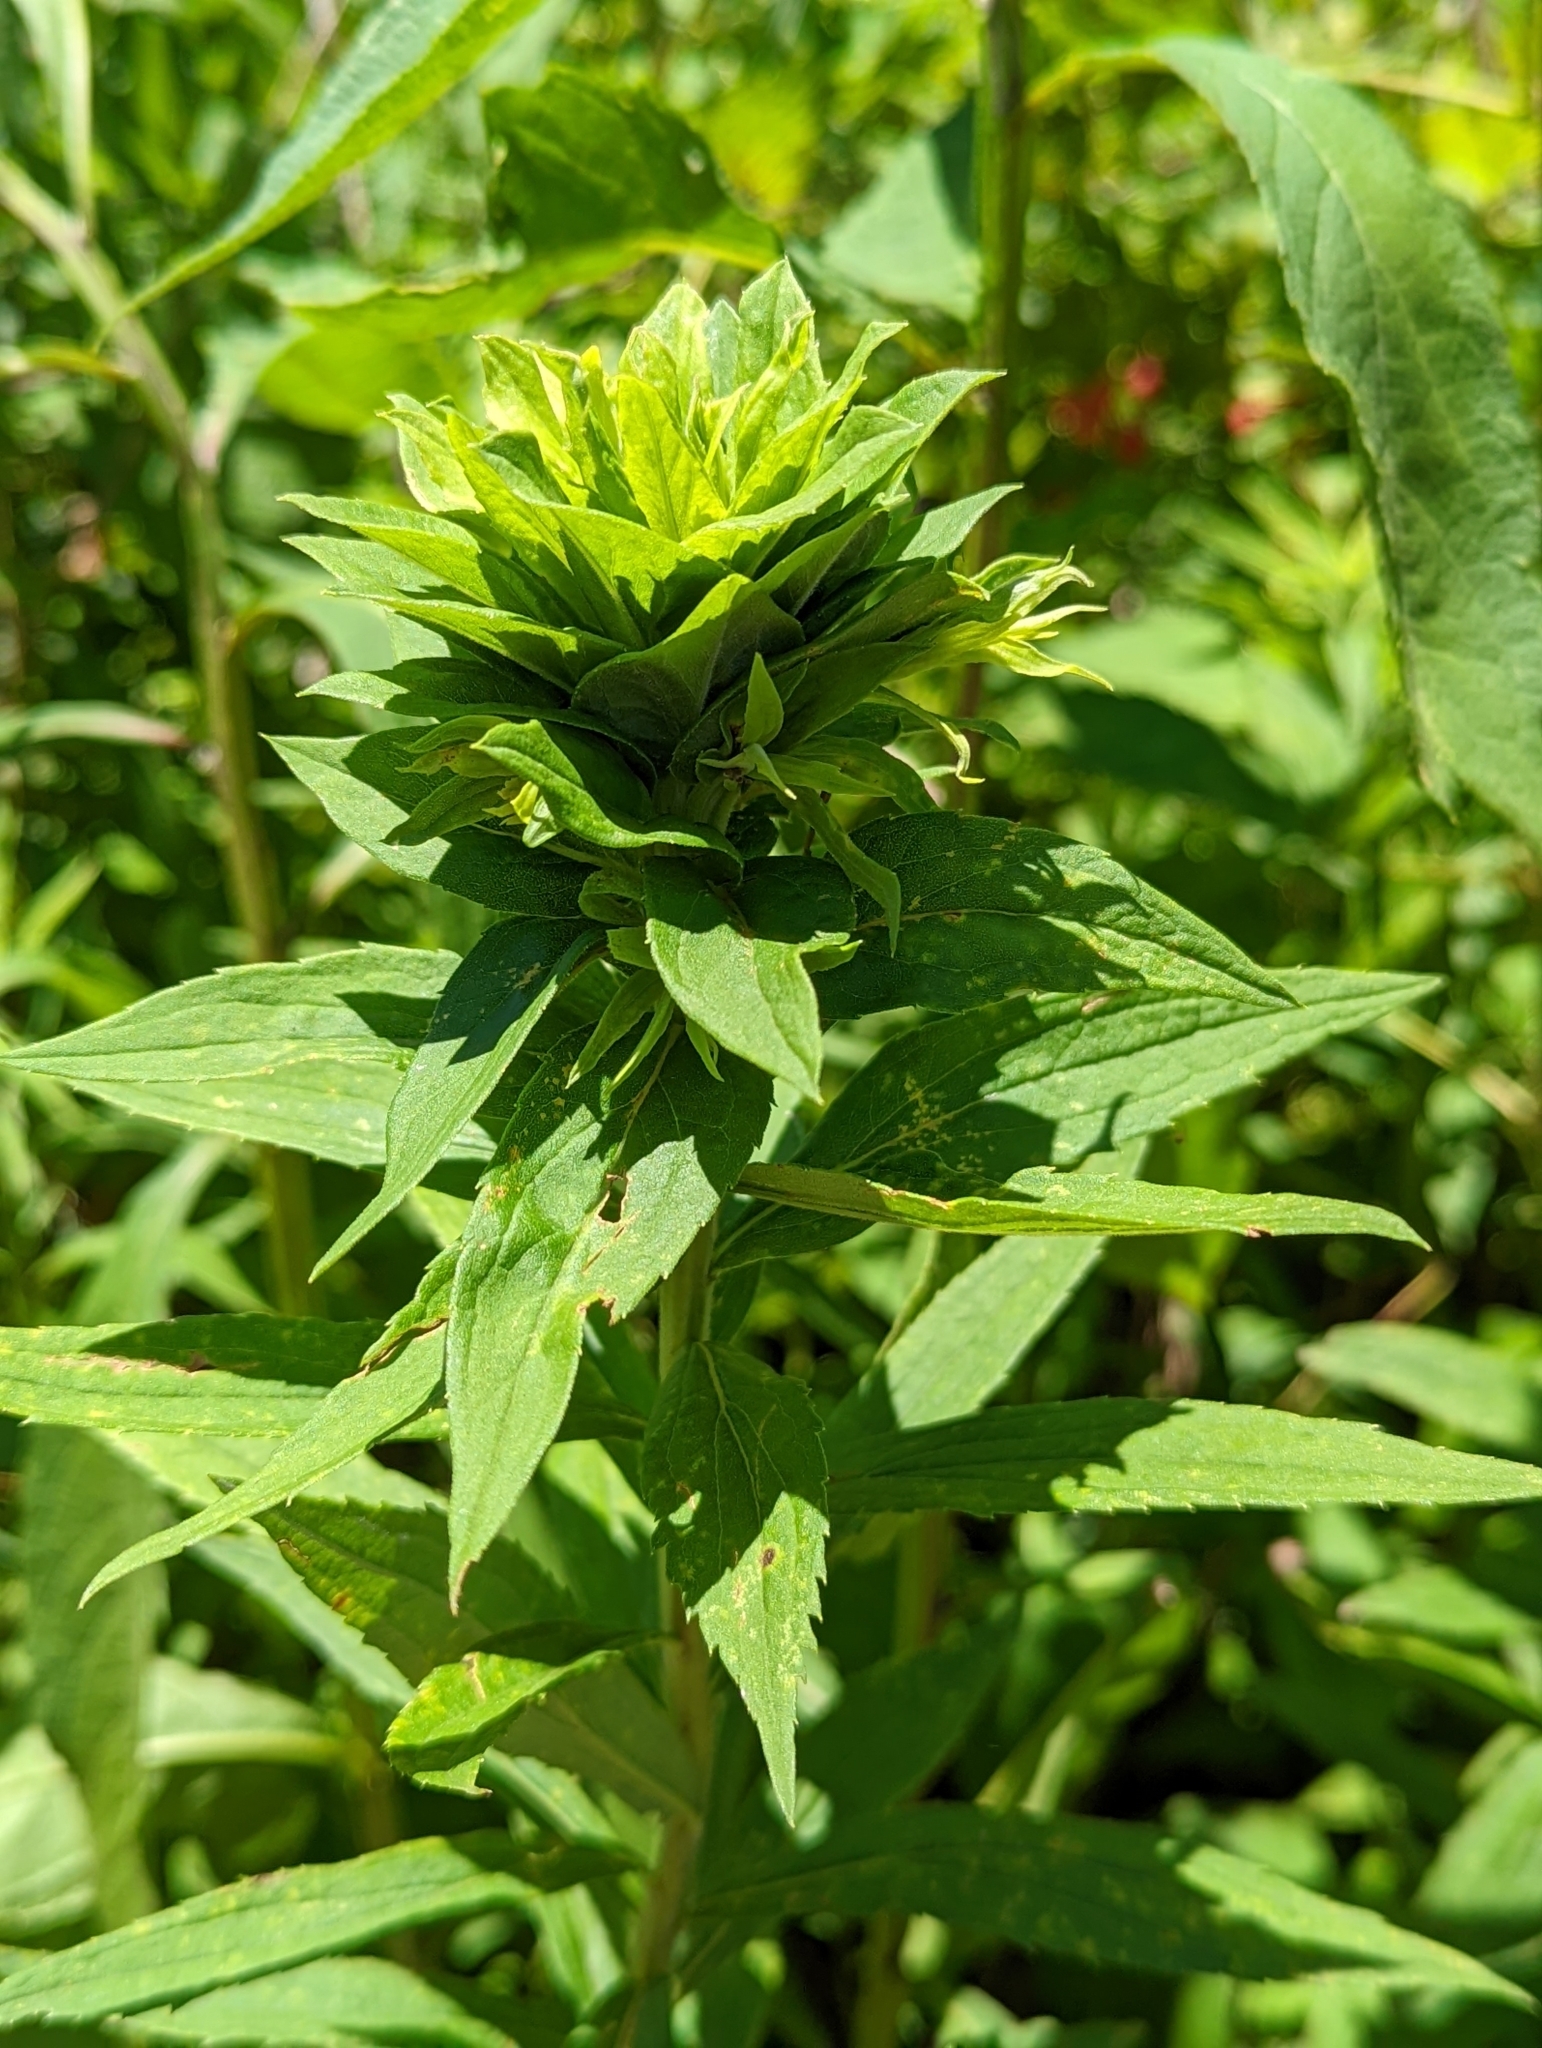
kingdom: Animalia
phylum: Arthropoda
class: Insecta
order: Diptera
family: Cecidomyiidae
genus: Rhopalomyia
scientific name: Rhopalomyia solidaginis
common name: Goldenrod bunch gall midge
